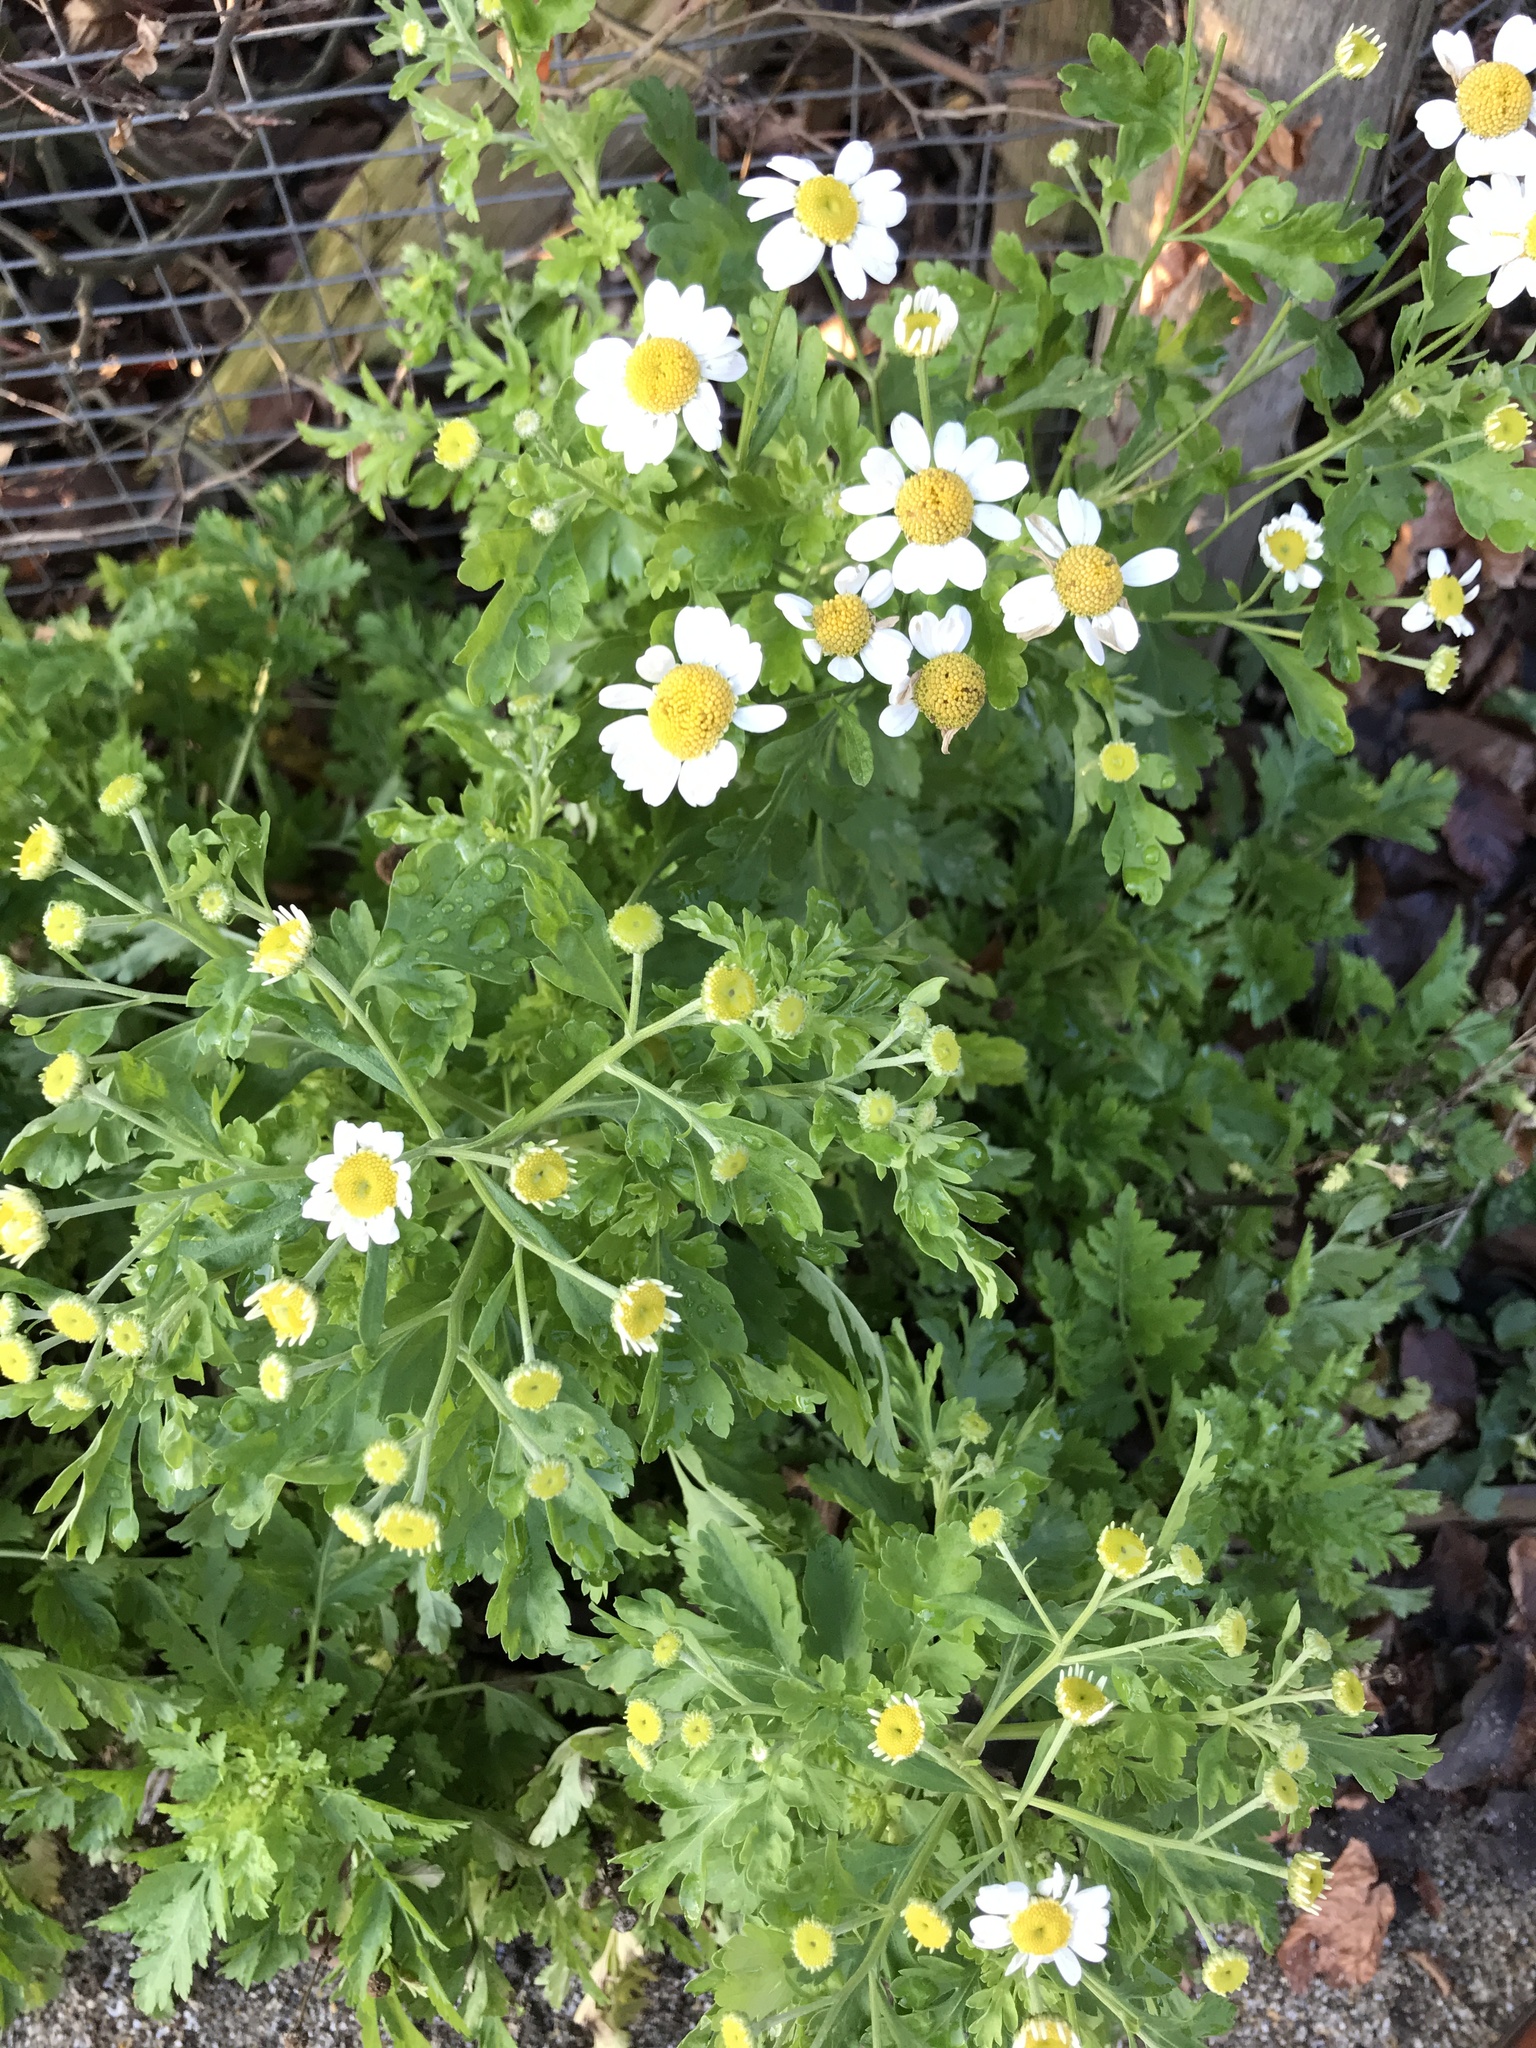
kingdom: Plantae
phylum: Tracheophyta
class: Magnoliopsida
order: Asterales
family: Asteraceae
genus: Tanacetum
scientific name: Tanacetum parthenium
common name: Feverfew
